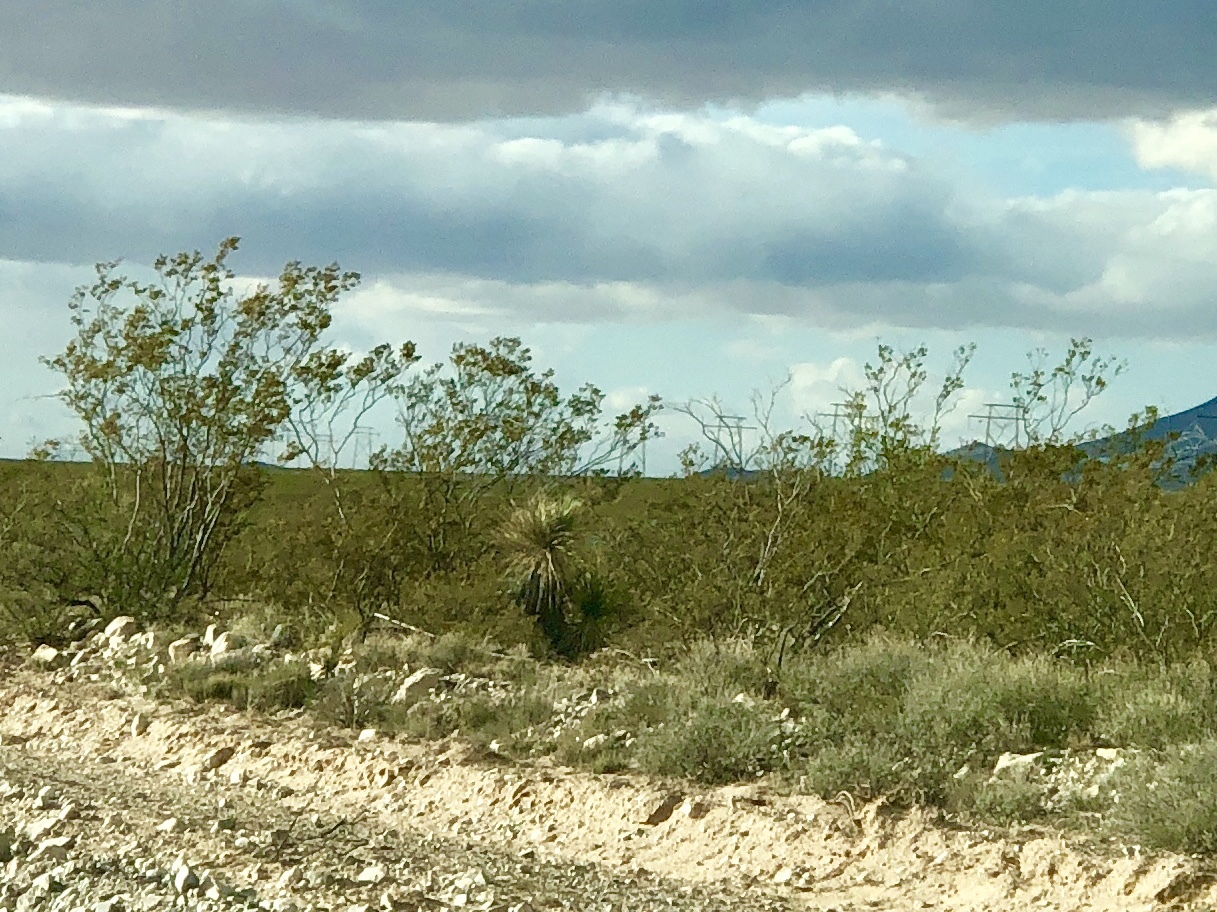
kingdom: Plantae
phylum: Tracheophyta
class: Magnoliopsida
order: Zygophyllales
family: Zygophyllaceae
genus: Larrea
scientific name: Larrea tridentata
